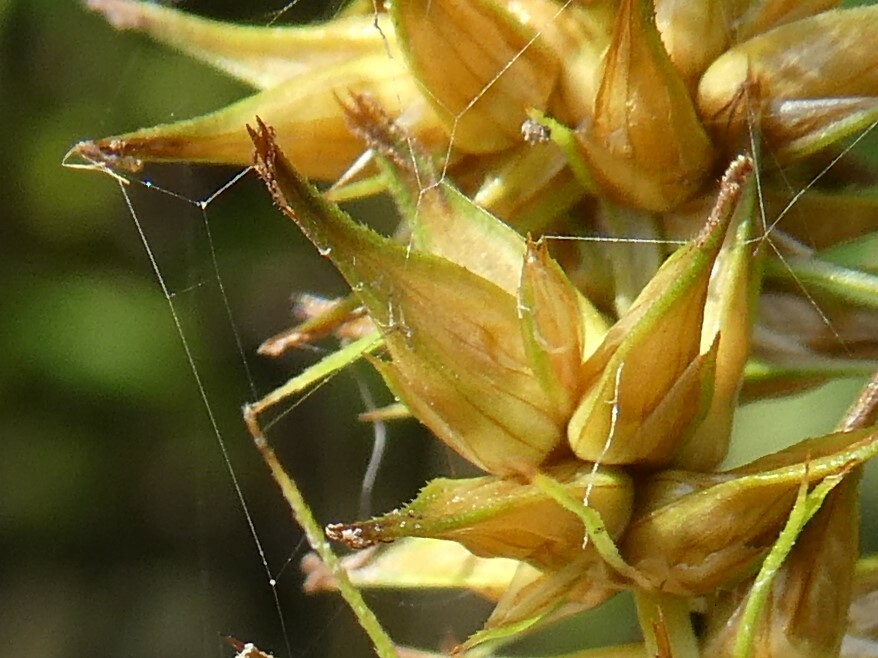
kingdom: Plantae
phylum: Tracheophyta
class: Liliopsida
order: Poales
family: Cyperaceae
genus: Carex
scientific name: Carex stipata
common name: Awl-fruited sedge
